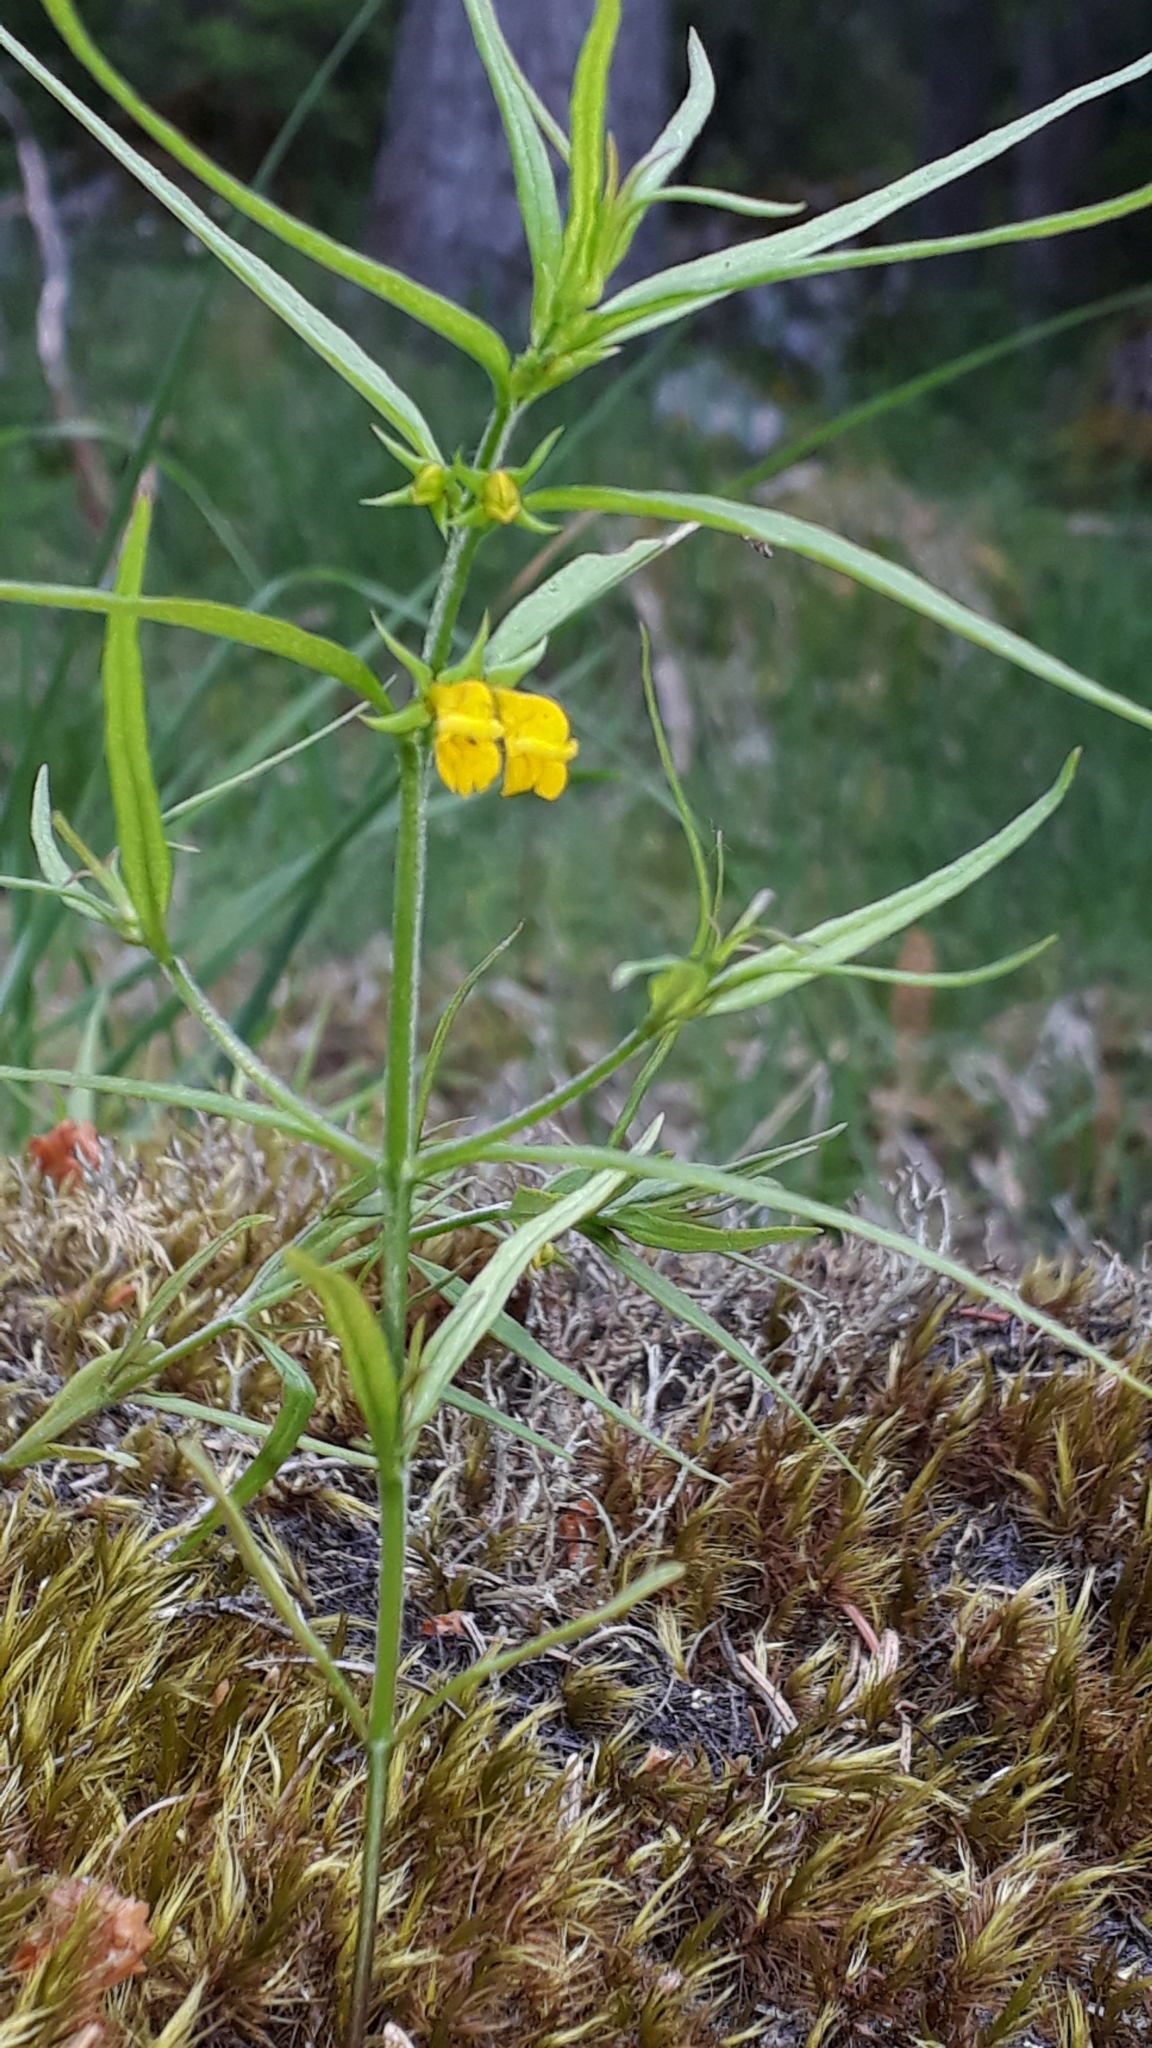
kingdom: Plantae
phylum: Tracheophyta
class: Magnoliopsida
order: Lamiales
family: Orobanchaceae
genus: Melampyrum
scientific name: Melampyrum sylvaticum
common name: Small cow-wheat
